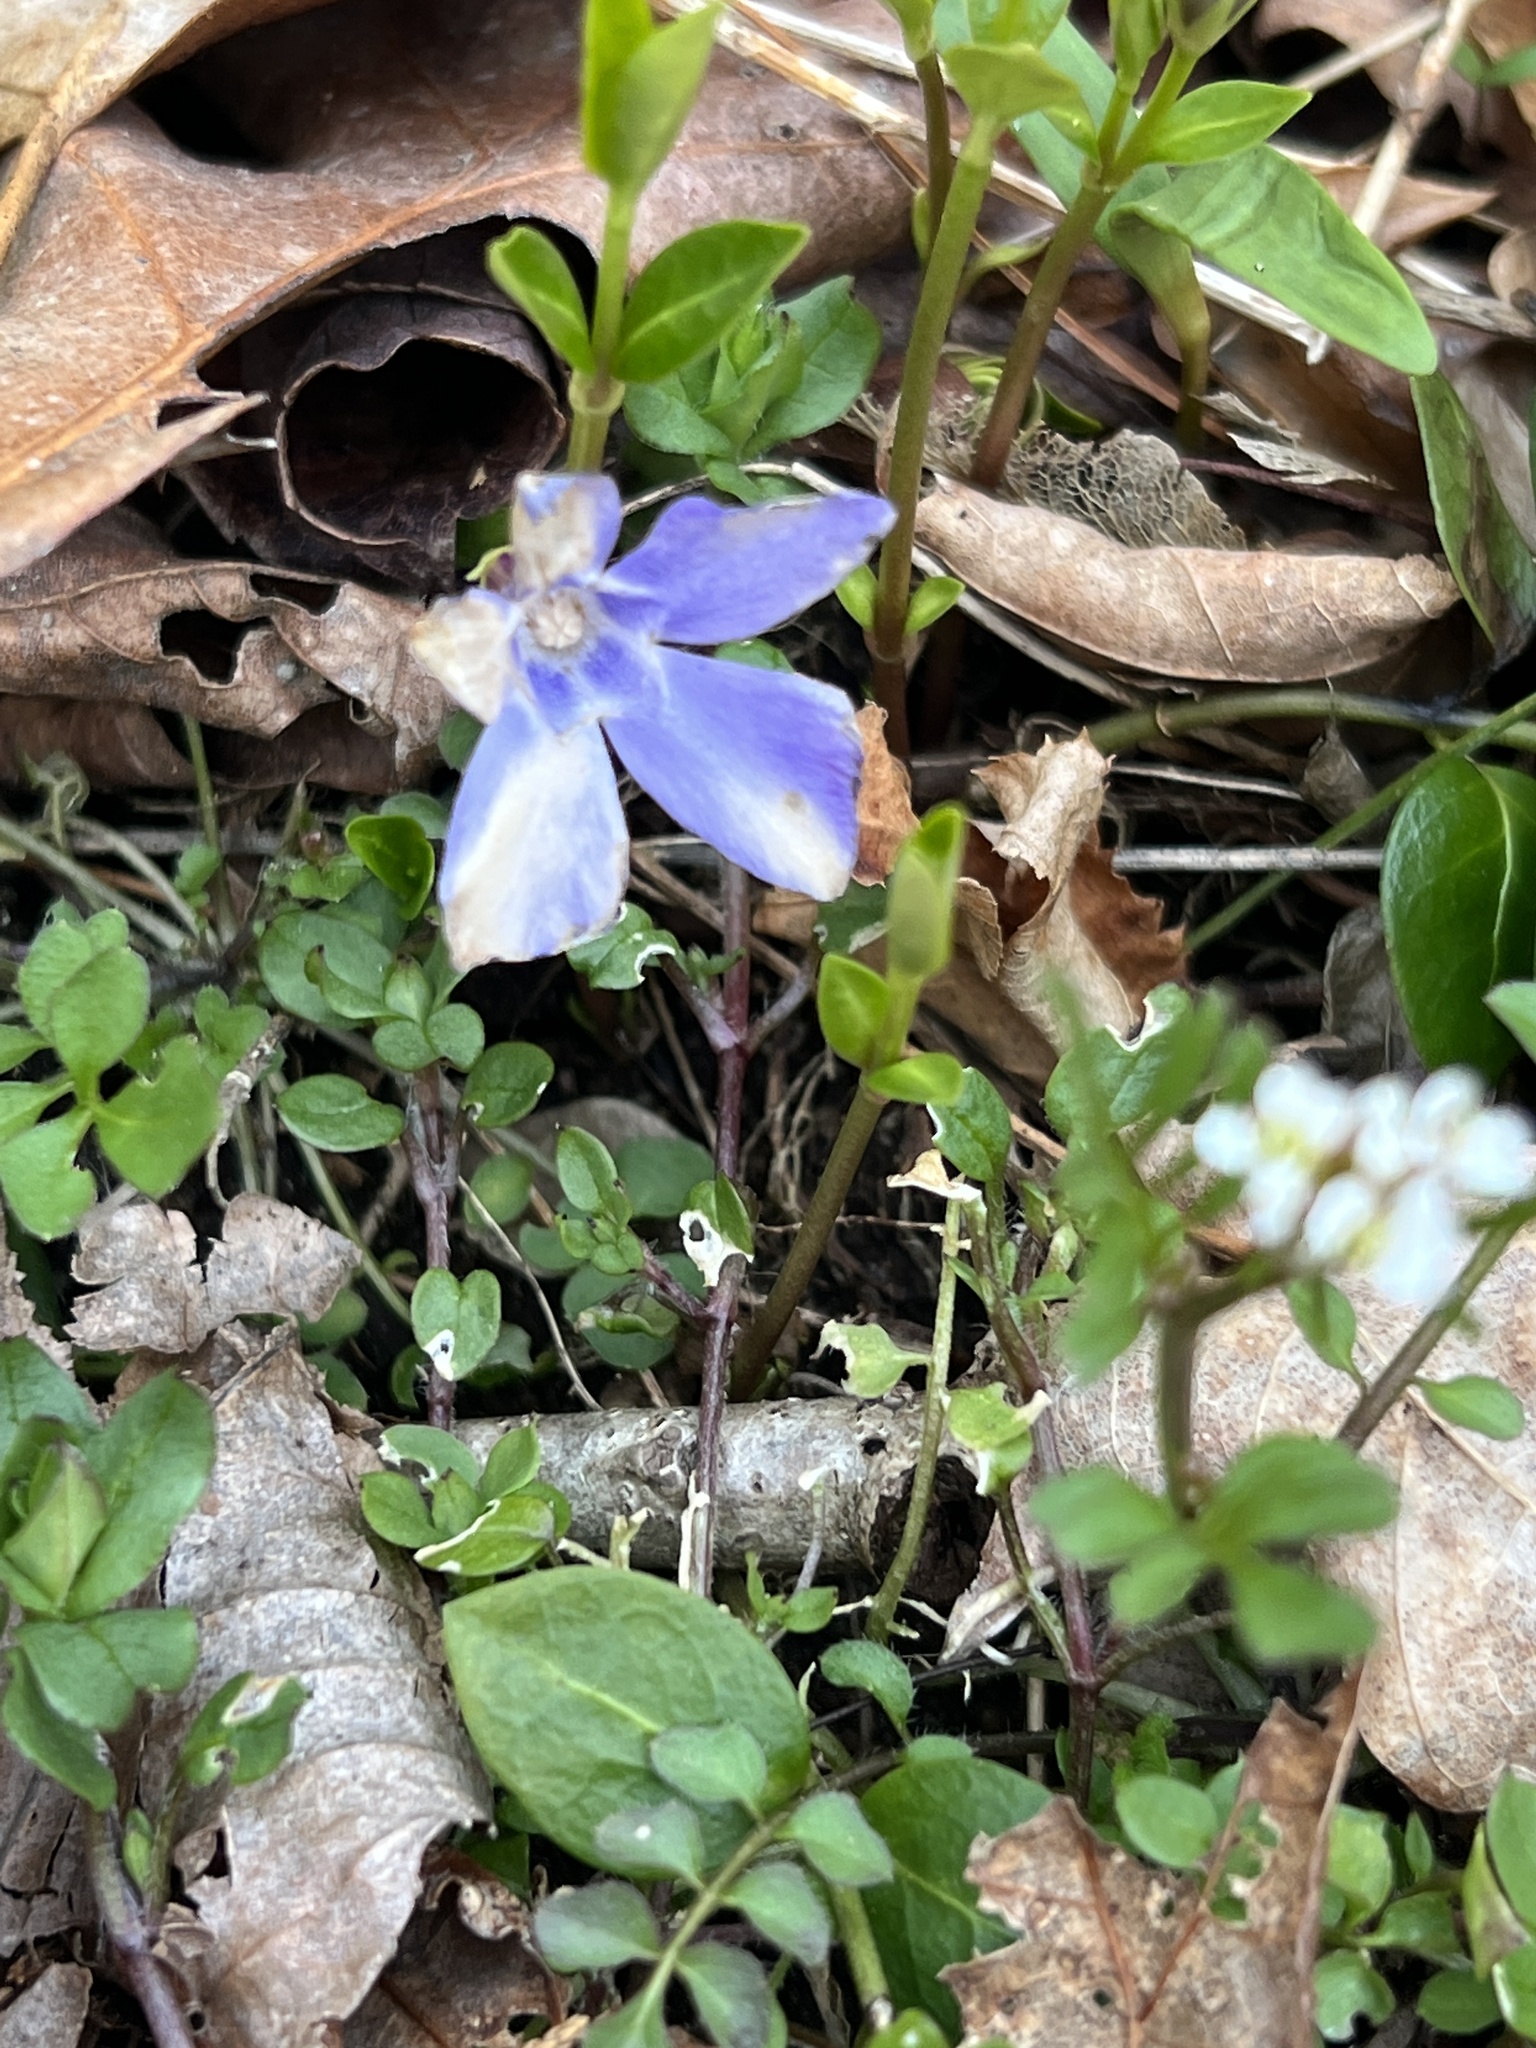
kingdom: Plantae
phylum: Tracheophyta
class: Magnoliopsida
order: Gentianales
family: Apocynaceae
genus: Vinca
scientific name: Vinca minor
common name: Lesser periwinkle
